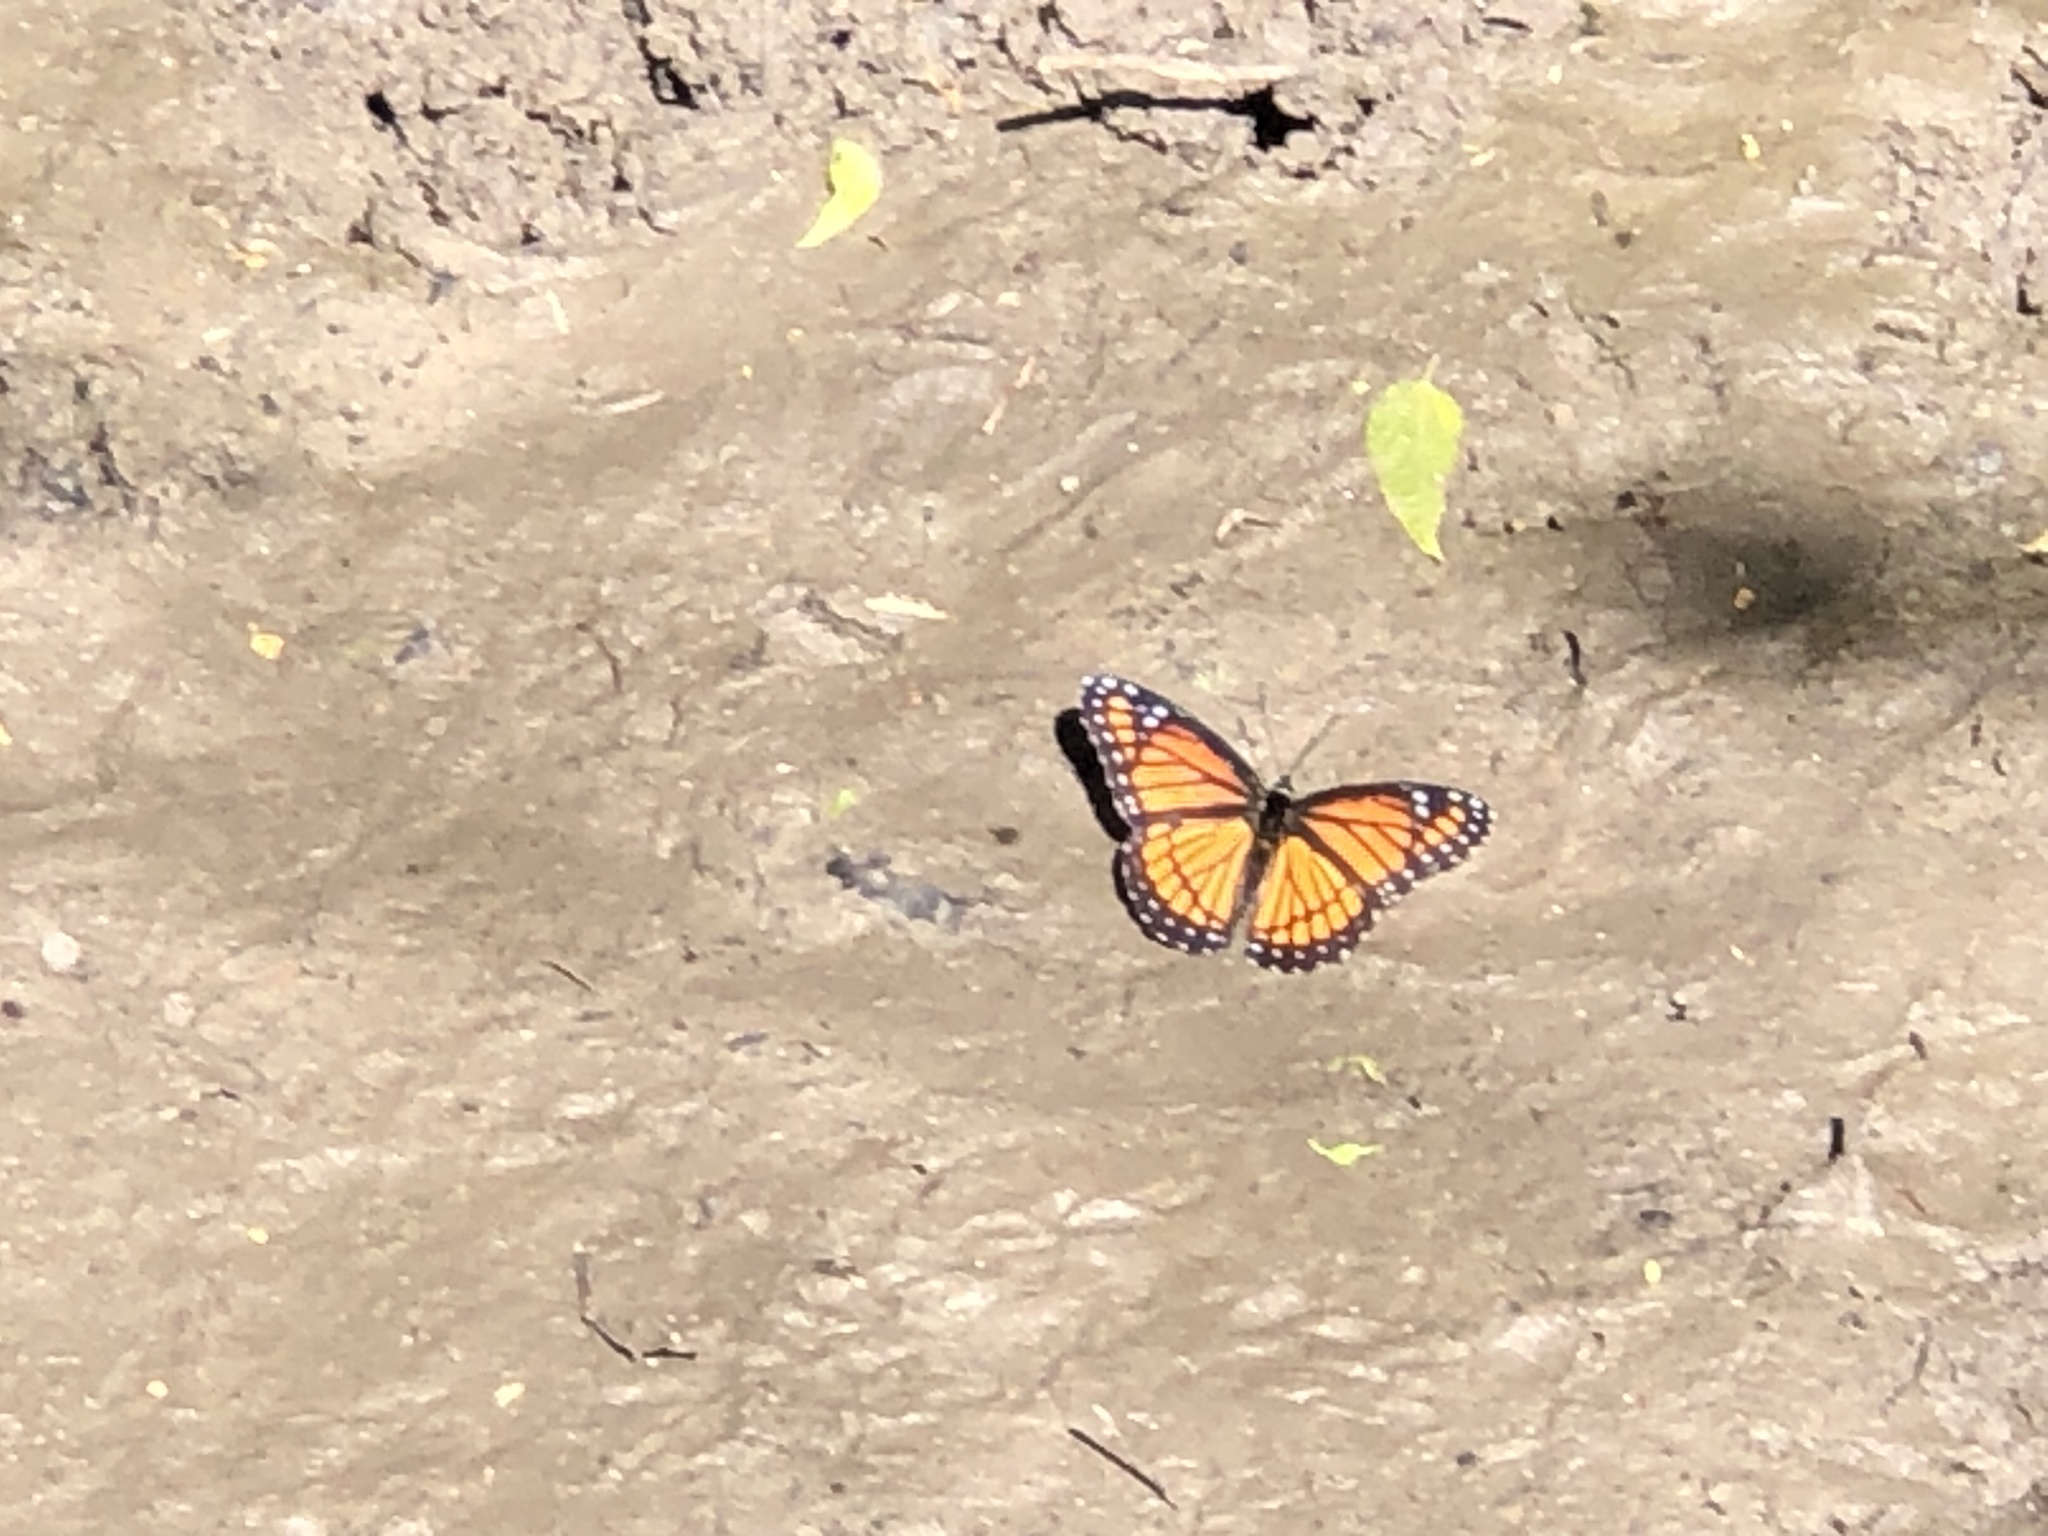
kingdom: Animalia
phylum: Arthropoda
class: Insecta
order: Lepidoptera
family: Nymphalidae
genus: Limenitis
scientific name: Limenitis archippus
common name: Viceroy
